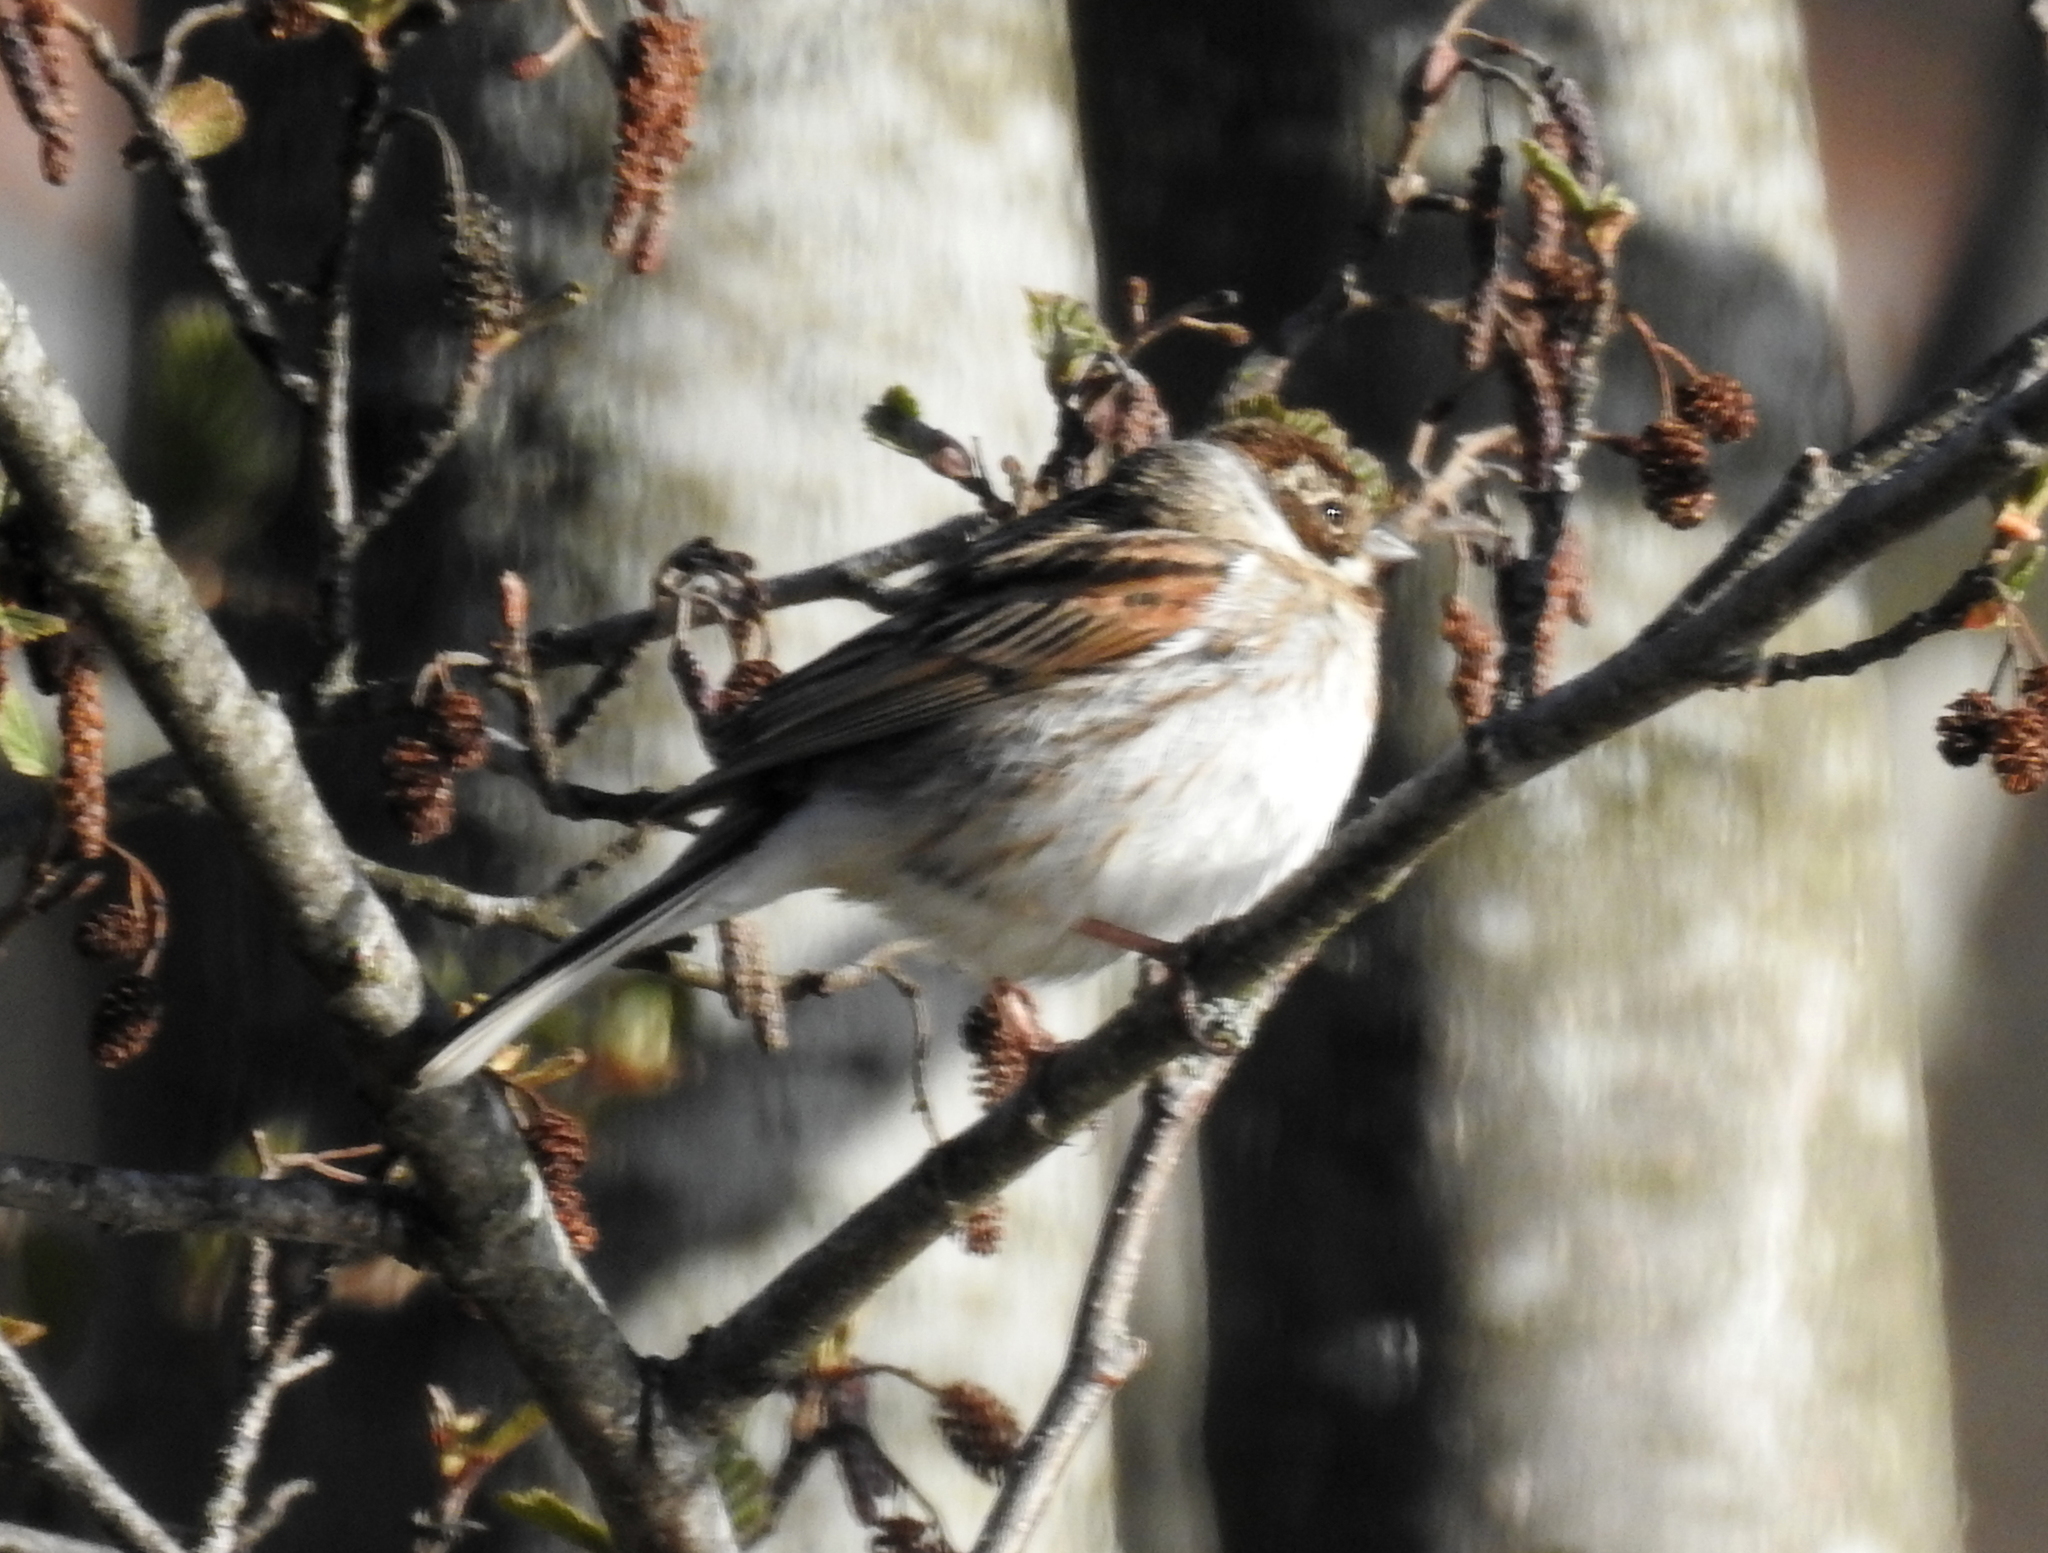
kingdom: Animalia
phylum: Chordata
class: Aves
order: Passeriformes
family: Emberizidae
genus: Emberiza
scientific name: Emberiza schoeniclus
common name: Reed bunting
